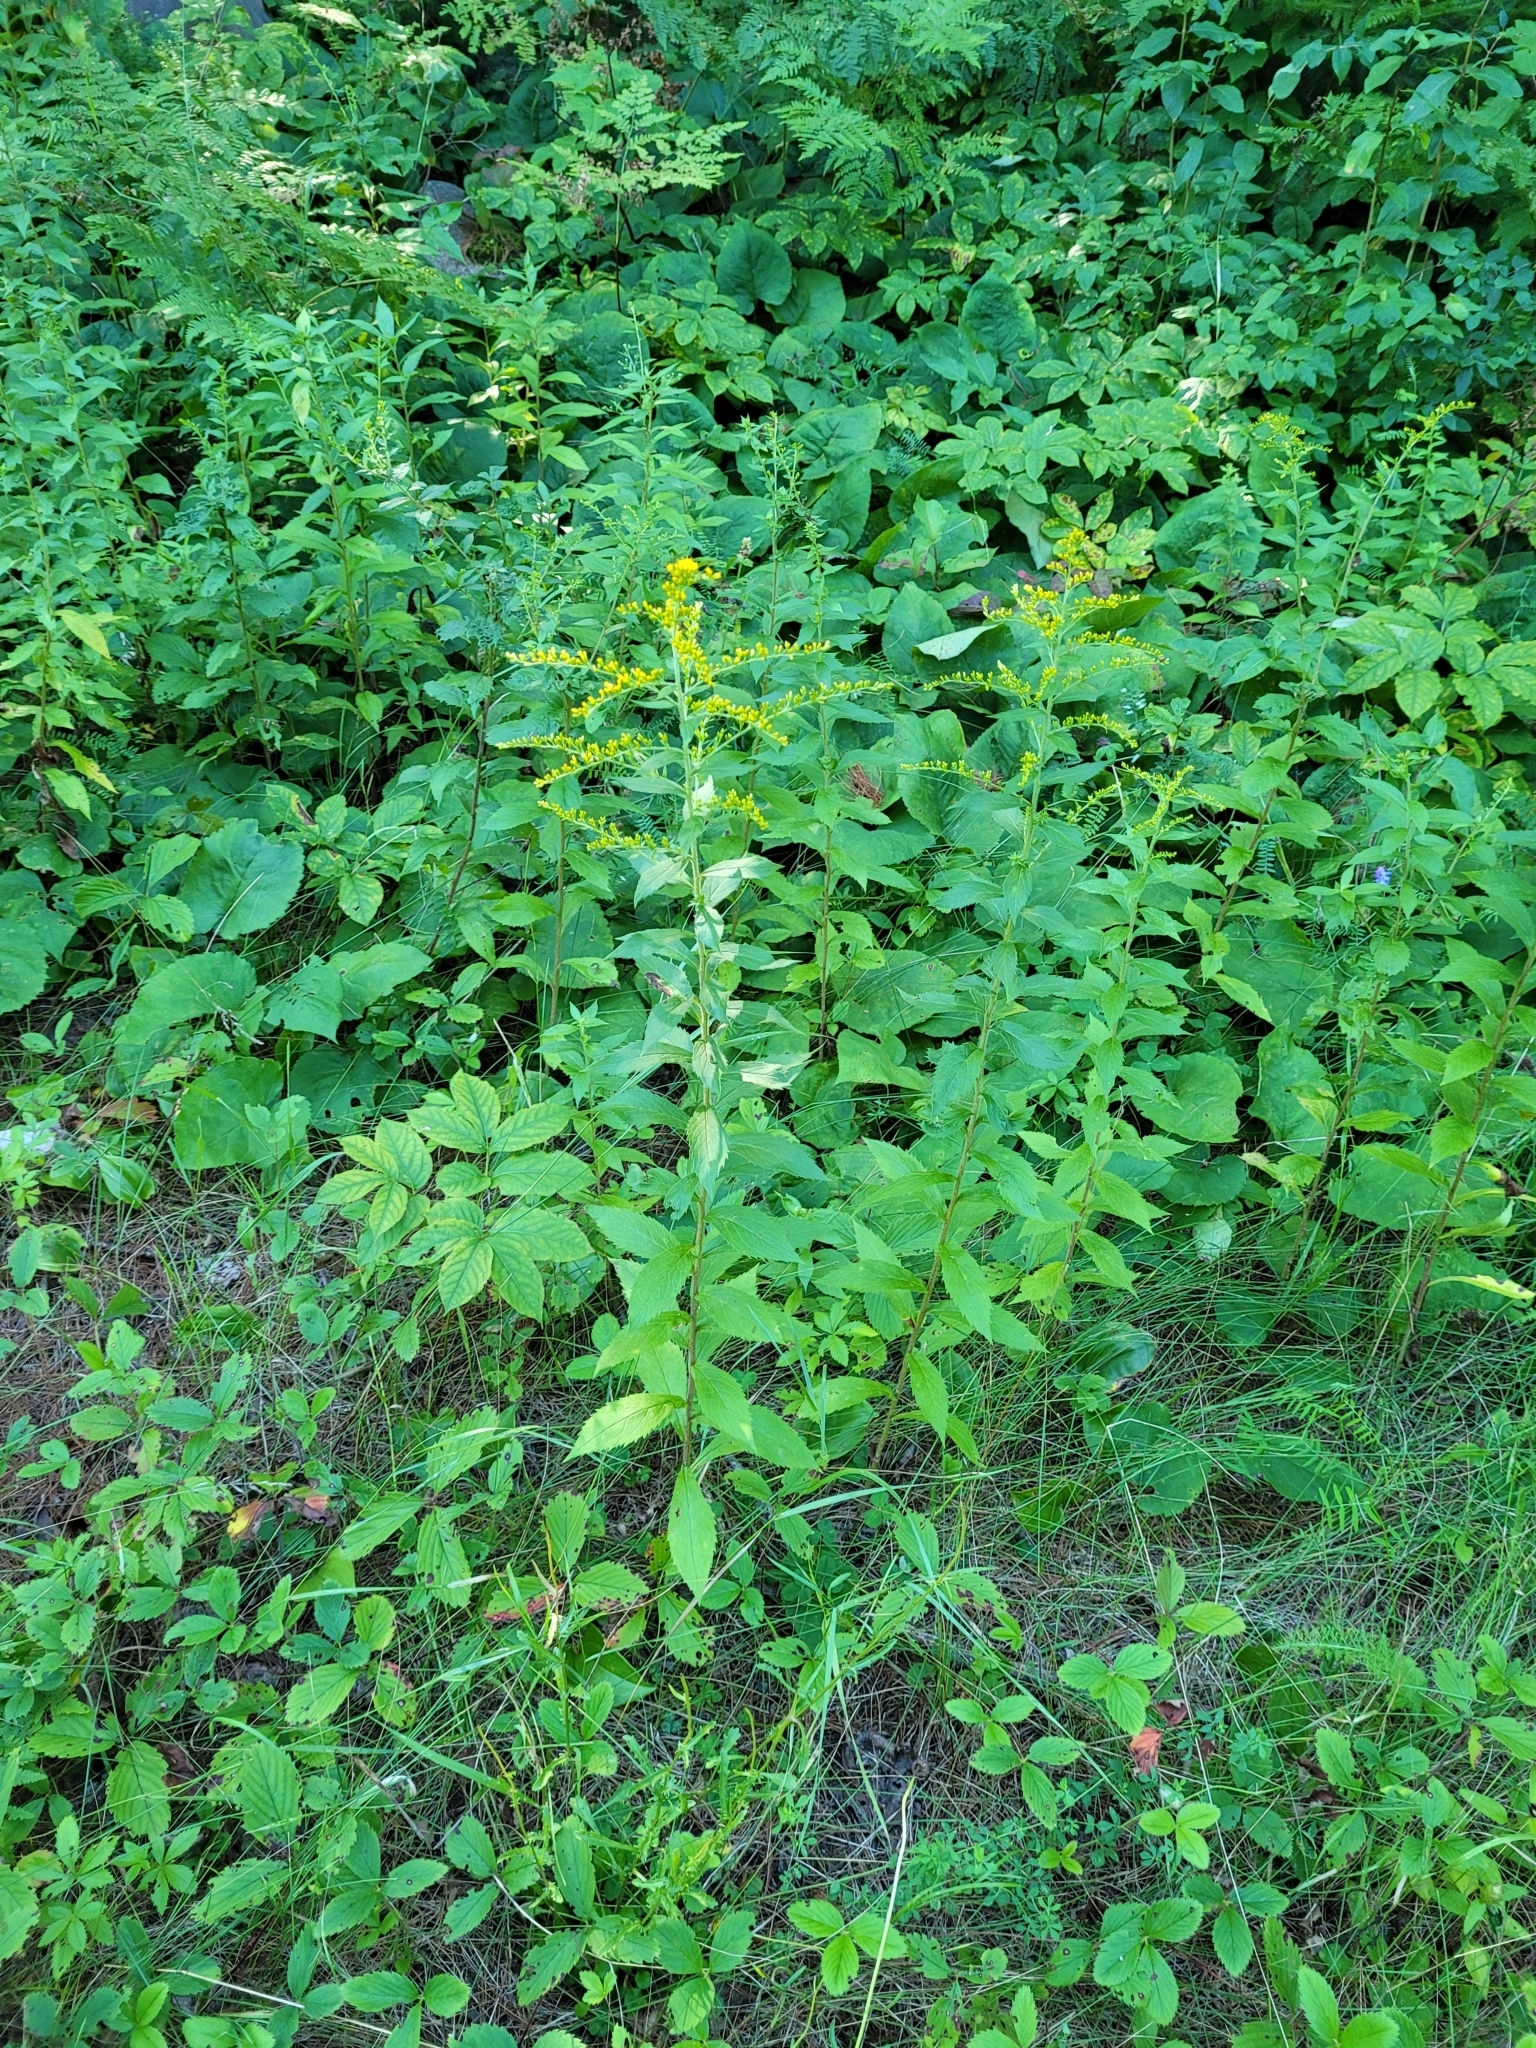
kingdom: Plantae
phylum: Tracheophyta
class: Magnoliopsida
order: Asterales
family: Asteraceae
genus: Solidago
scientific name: Solidago rugosa
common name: Rough-stemmed goldenrod
